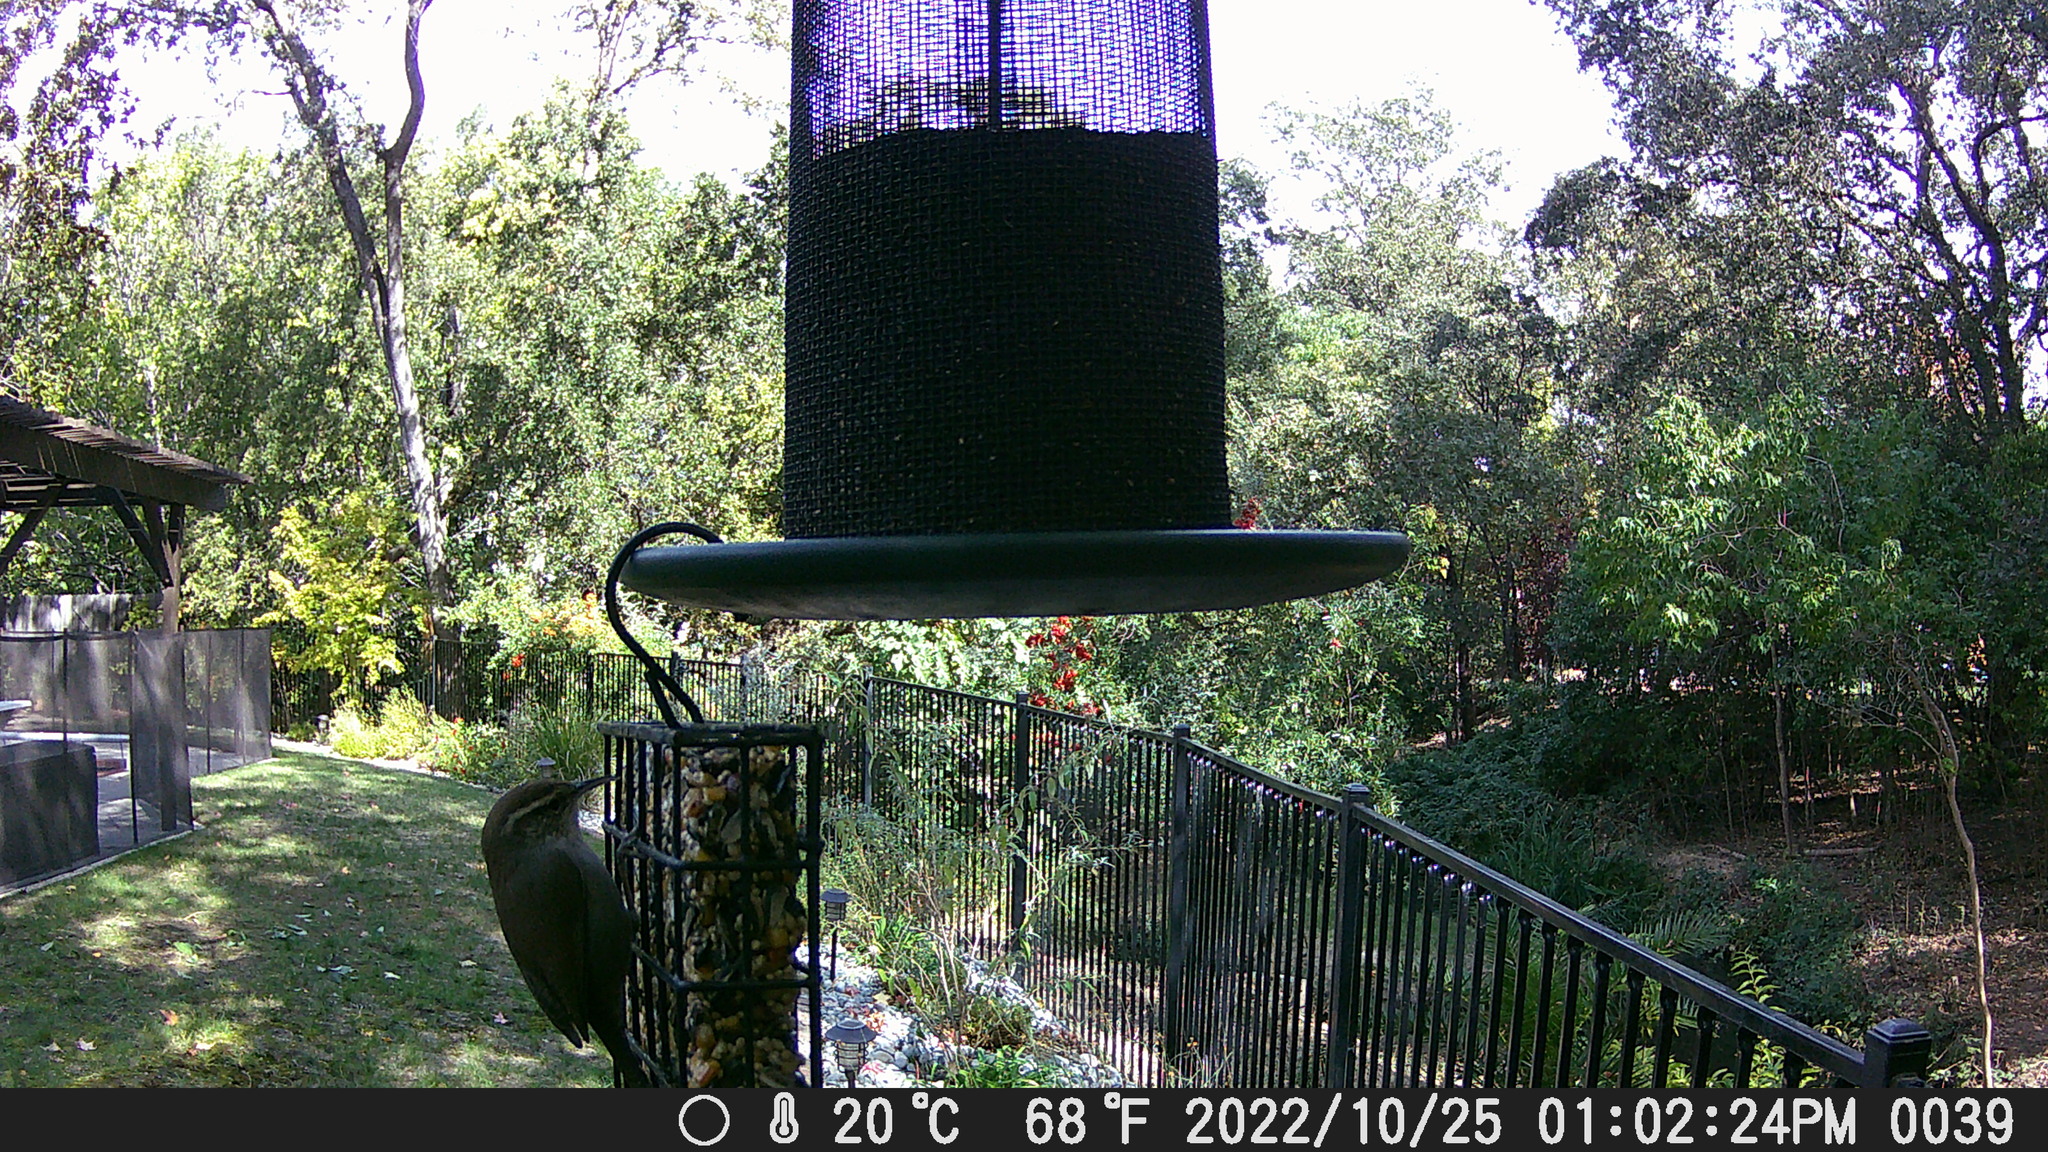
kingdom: Animalia
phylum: Chordata
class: Aves
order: Passeriformes
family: Troglodytidae
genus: Thryomanes
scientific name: Thryomanes bewickii
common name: Bewick's wren
